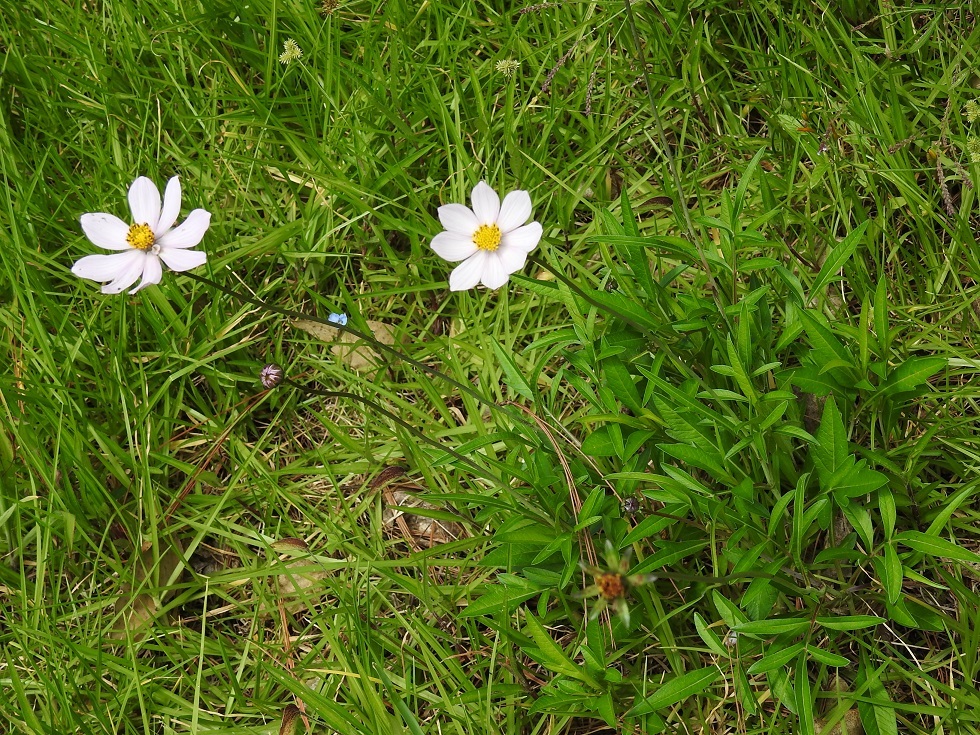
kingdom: Plantae
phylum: Tracheophyta
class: Magnoliopsida
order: Asterales
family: Asteraceae
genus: Cosmos
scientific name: Cosmos diversifolius
